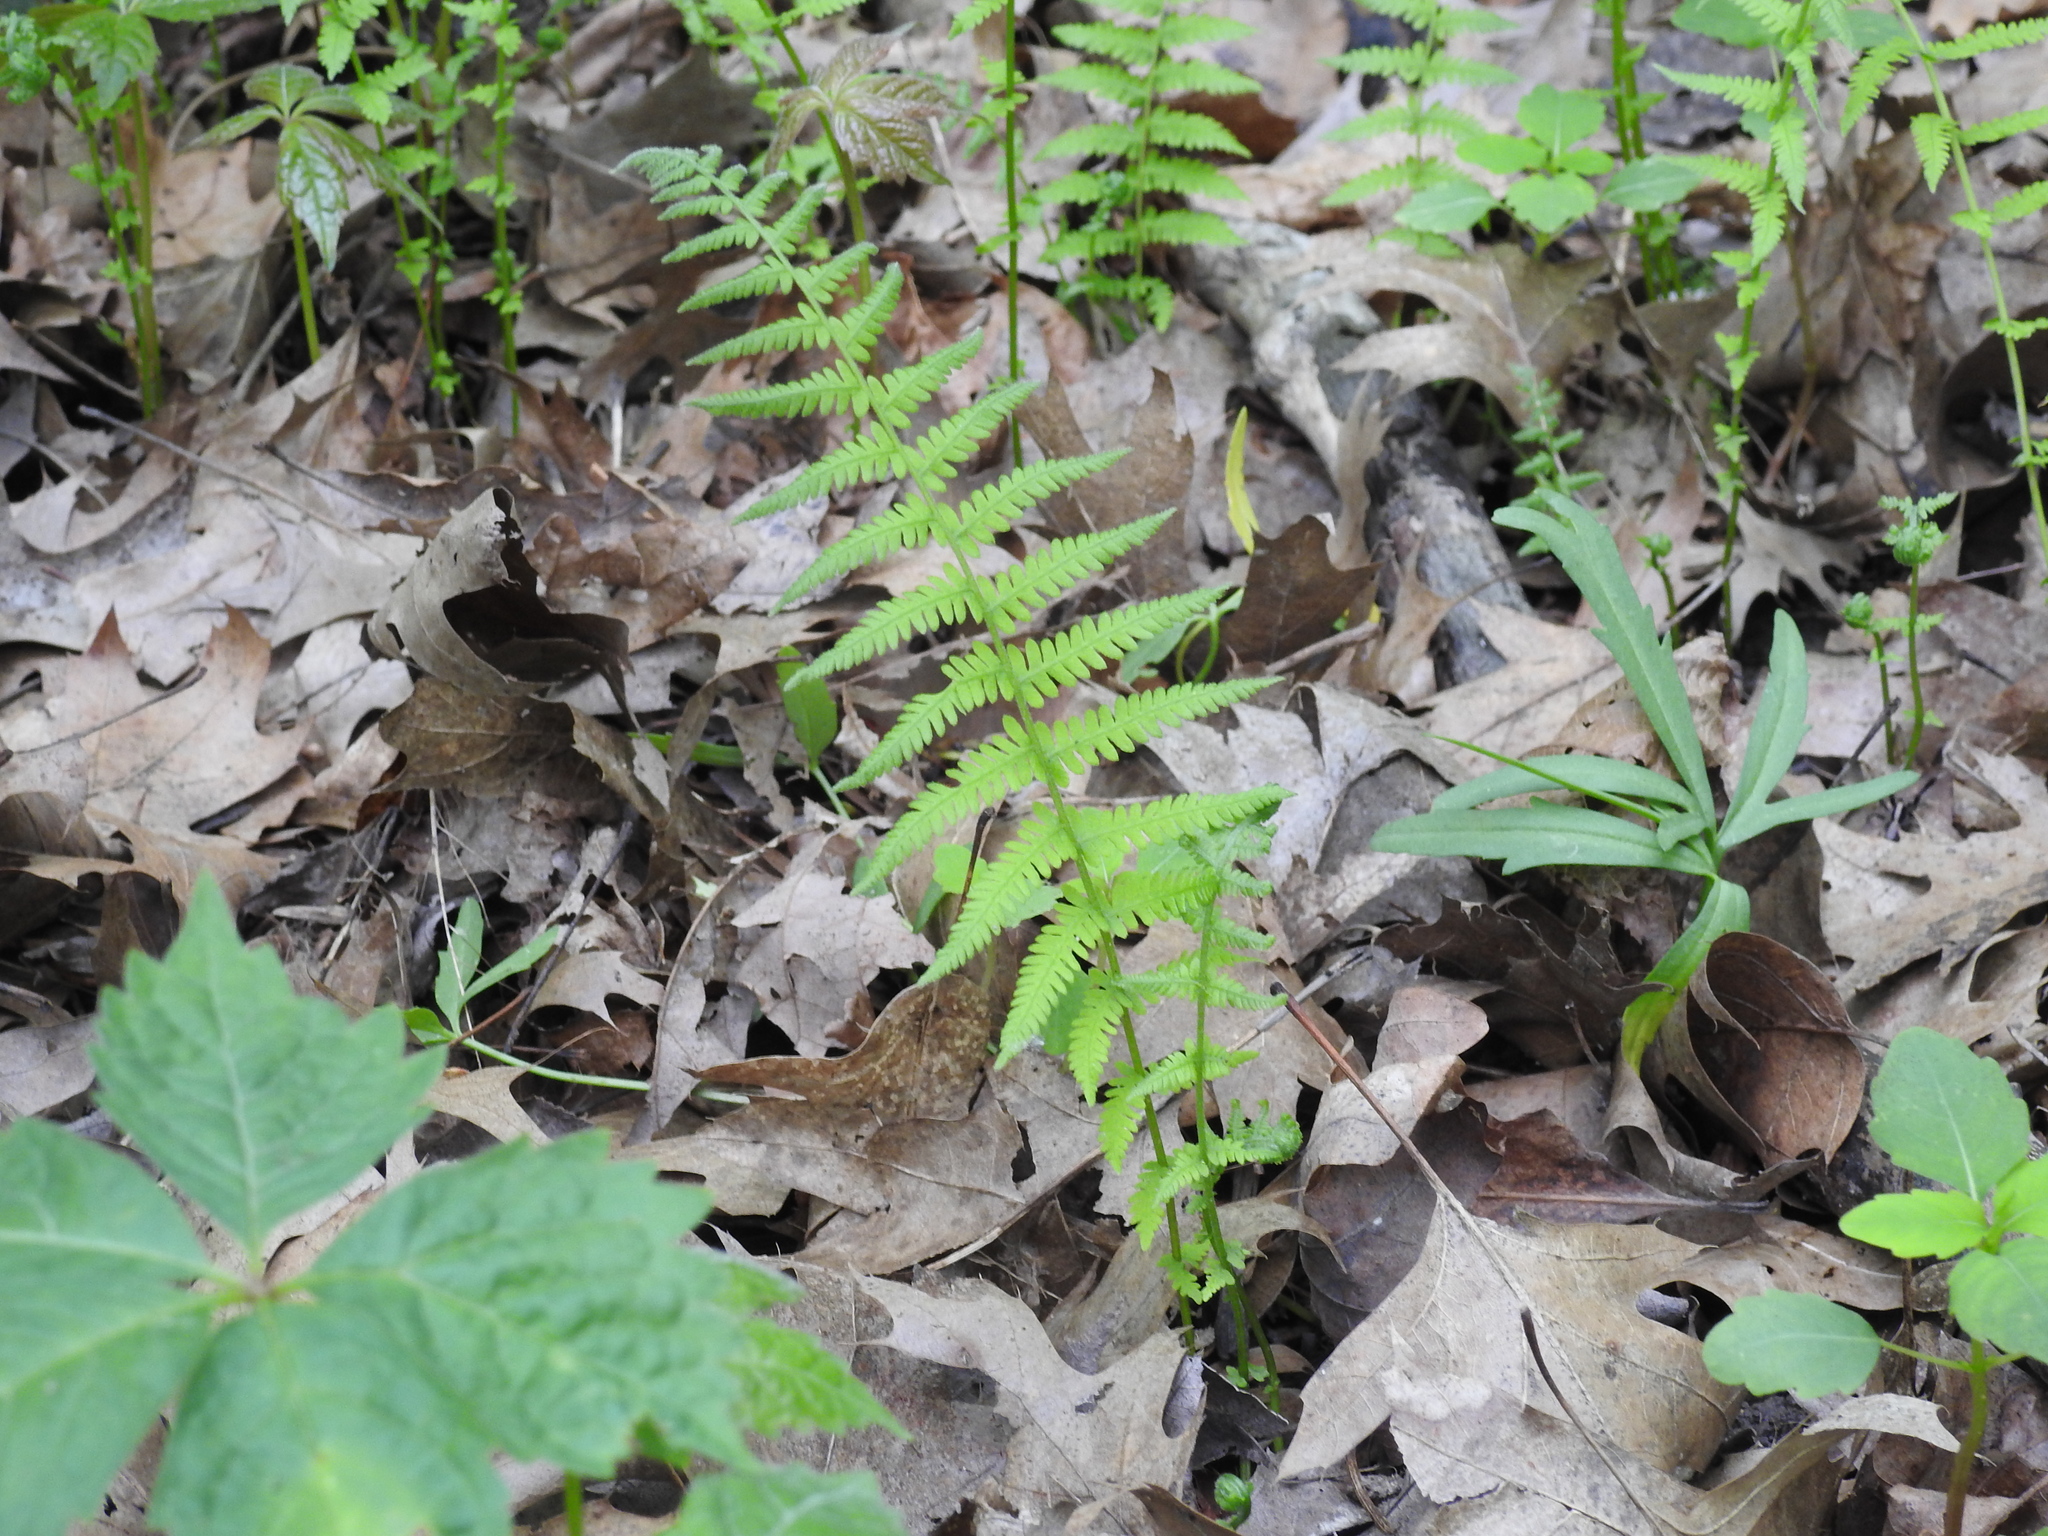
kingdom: Plantae
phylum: Tracheophyta
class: Polypodiopsida
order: Polypodiales
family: Thelypteridaceae
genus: Amauropelta
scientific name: Amauropelta noveboracensis
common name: New york fern
